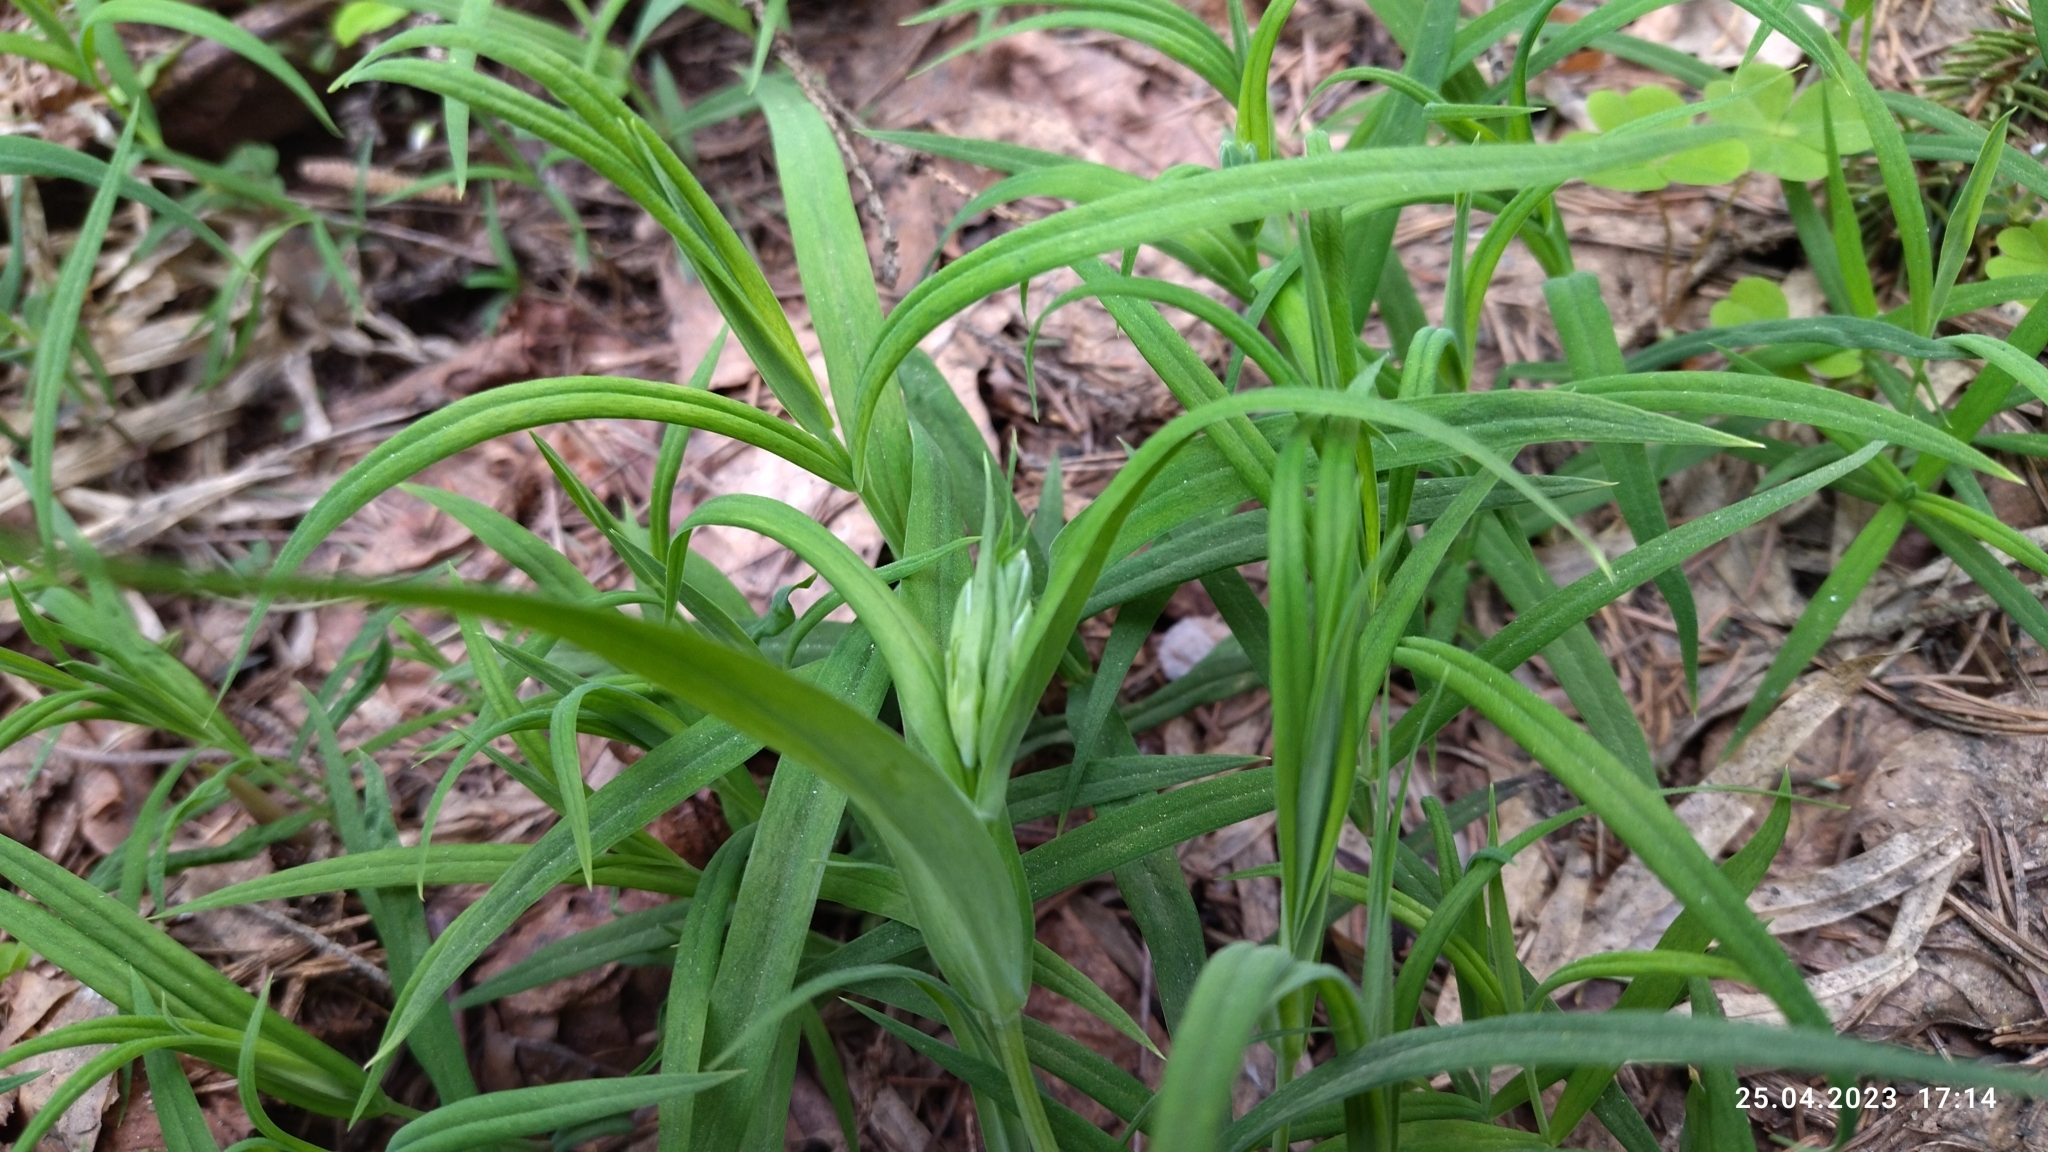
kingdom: Plantae
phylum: Tracheophyta
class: Magnoliopsida
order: Caryophyllales
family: Caryophyllaceae
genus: Rabelera
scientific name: Rabelera holostea
